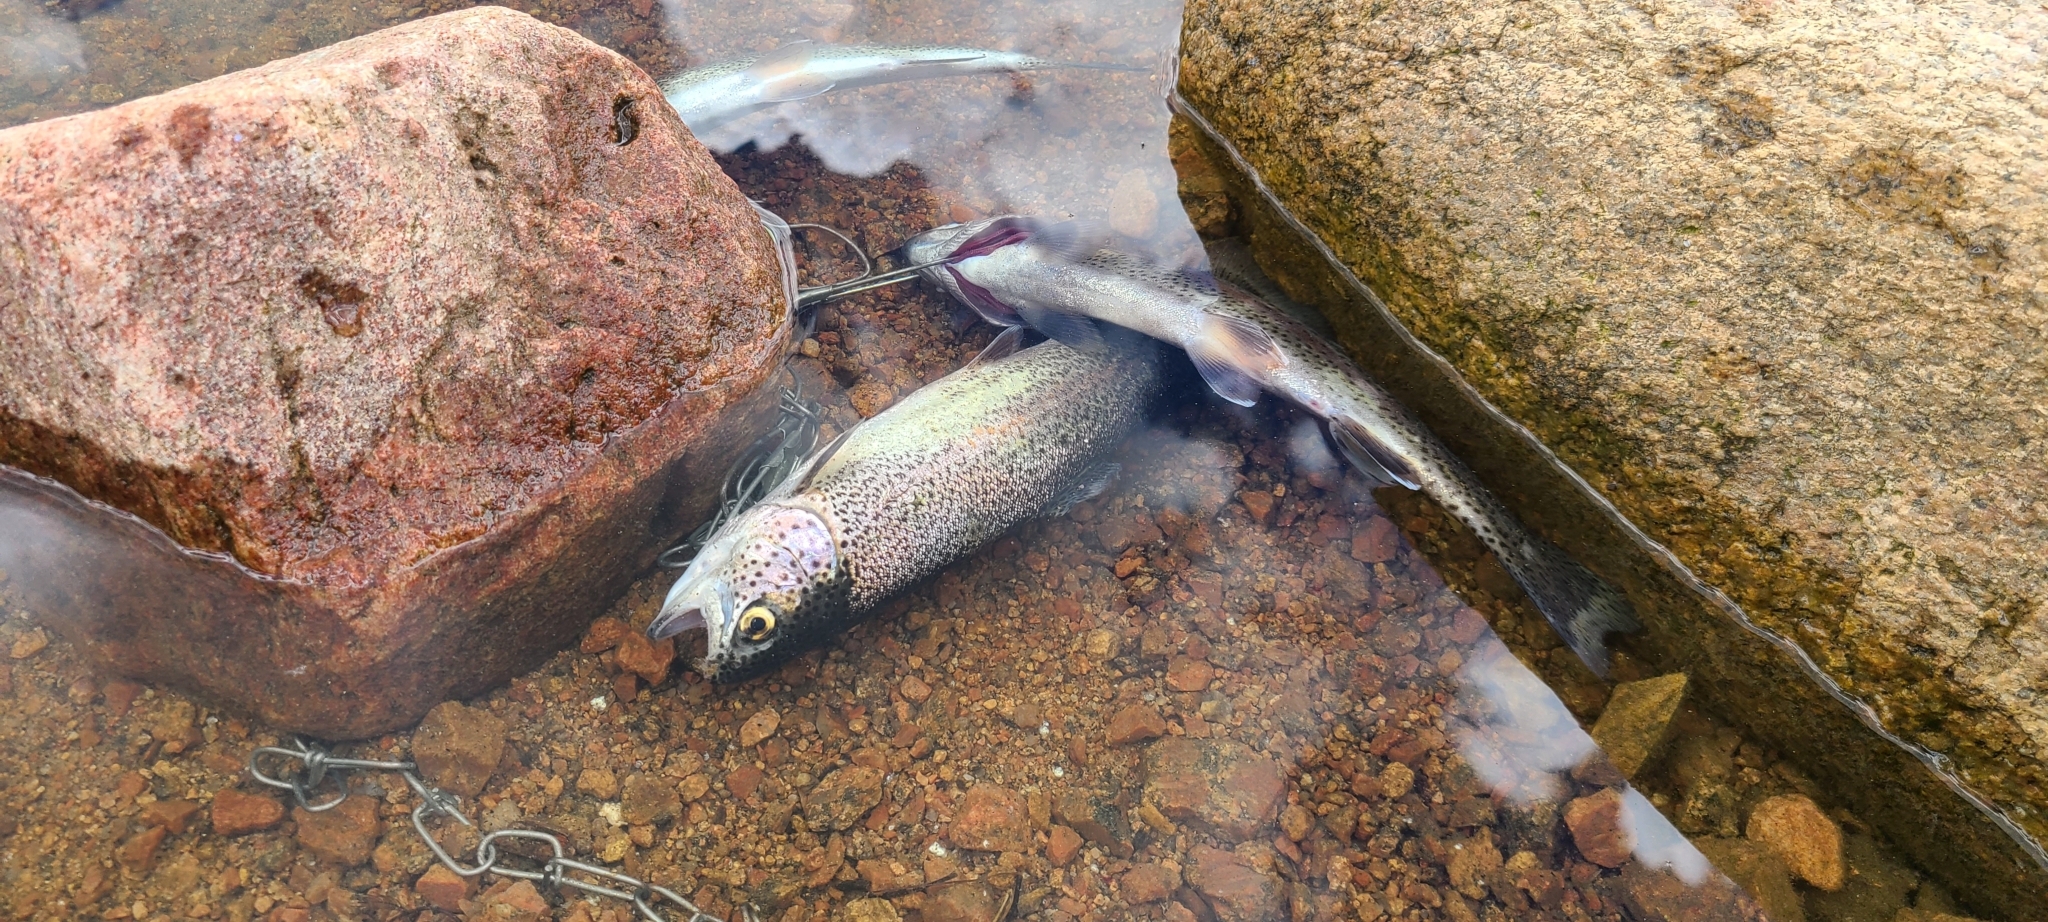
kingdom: Animalia
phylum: Chordata
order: Salmoniformes
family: Salmonidae
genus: Oncorhynchus
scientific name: Oncorhynchus mykiss
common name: Rainbow trout
